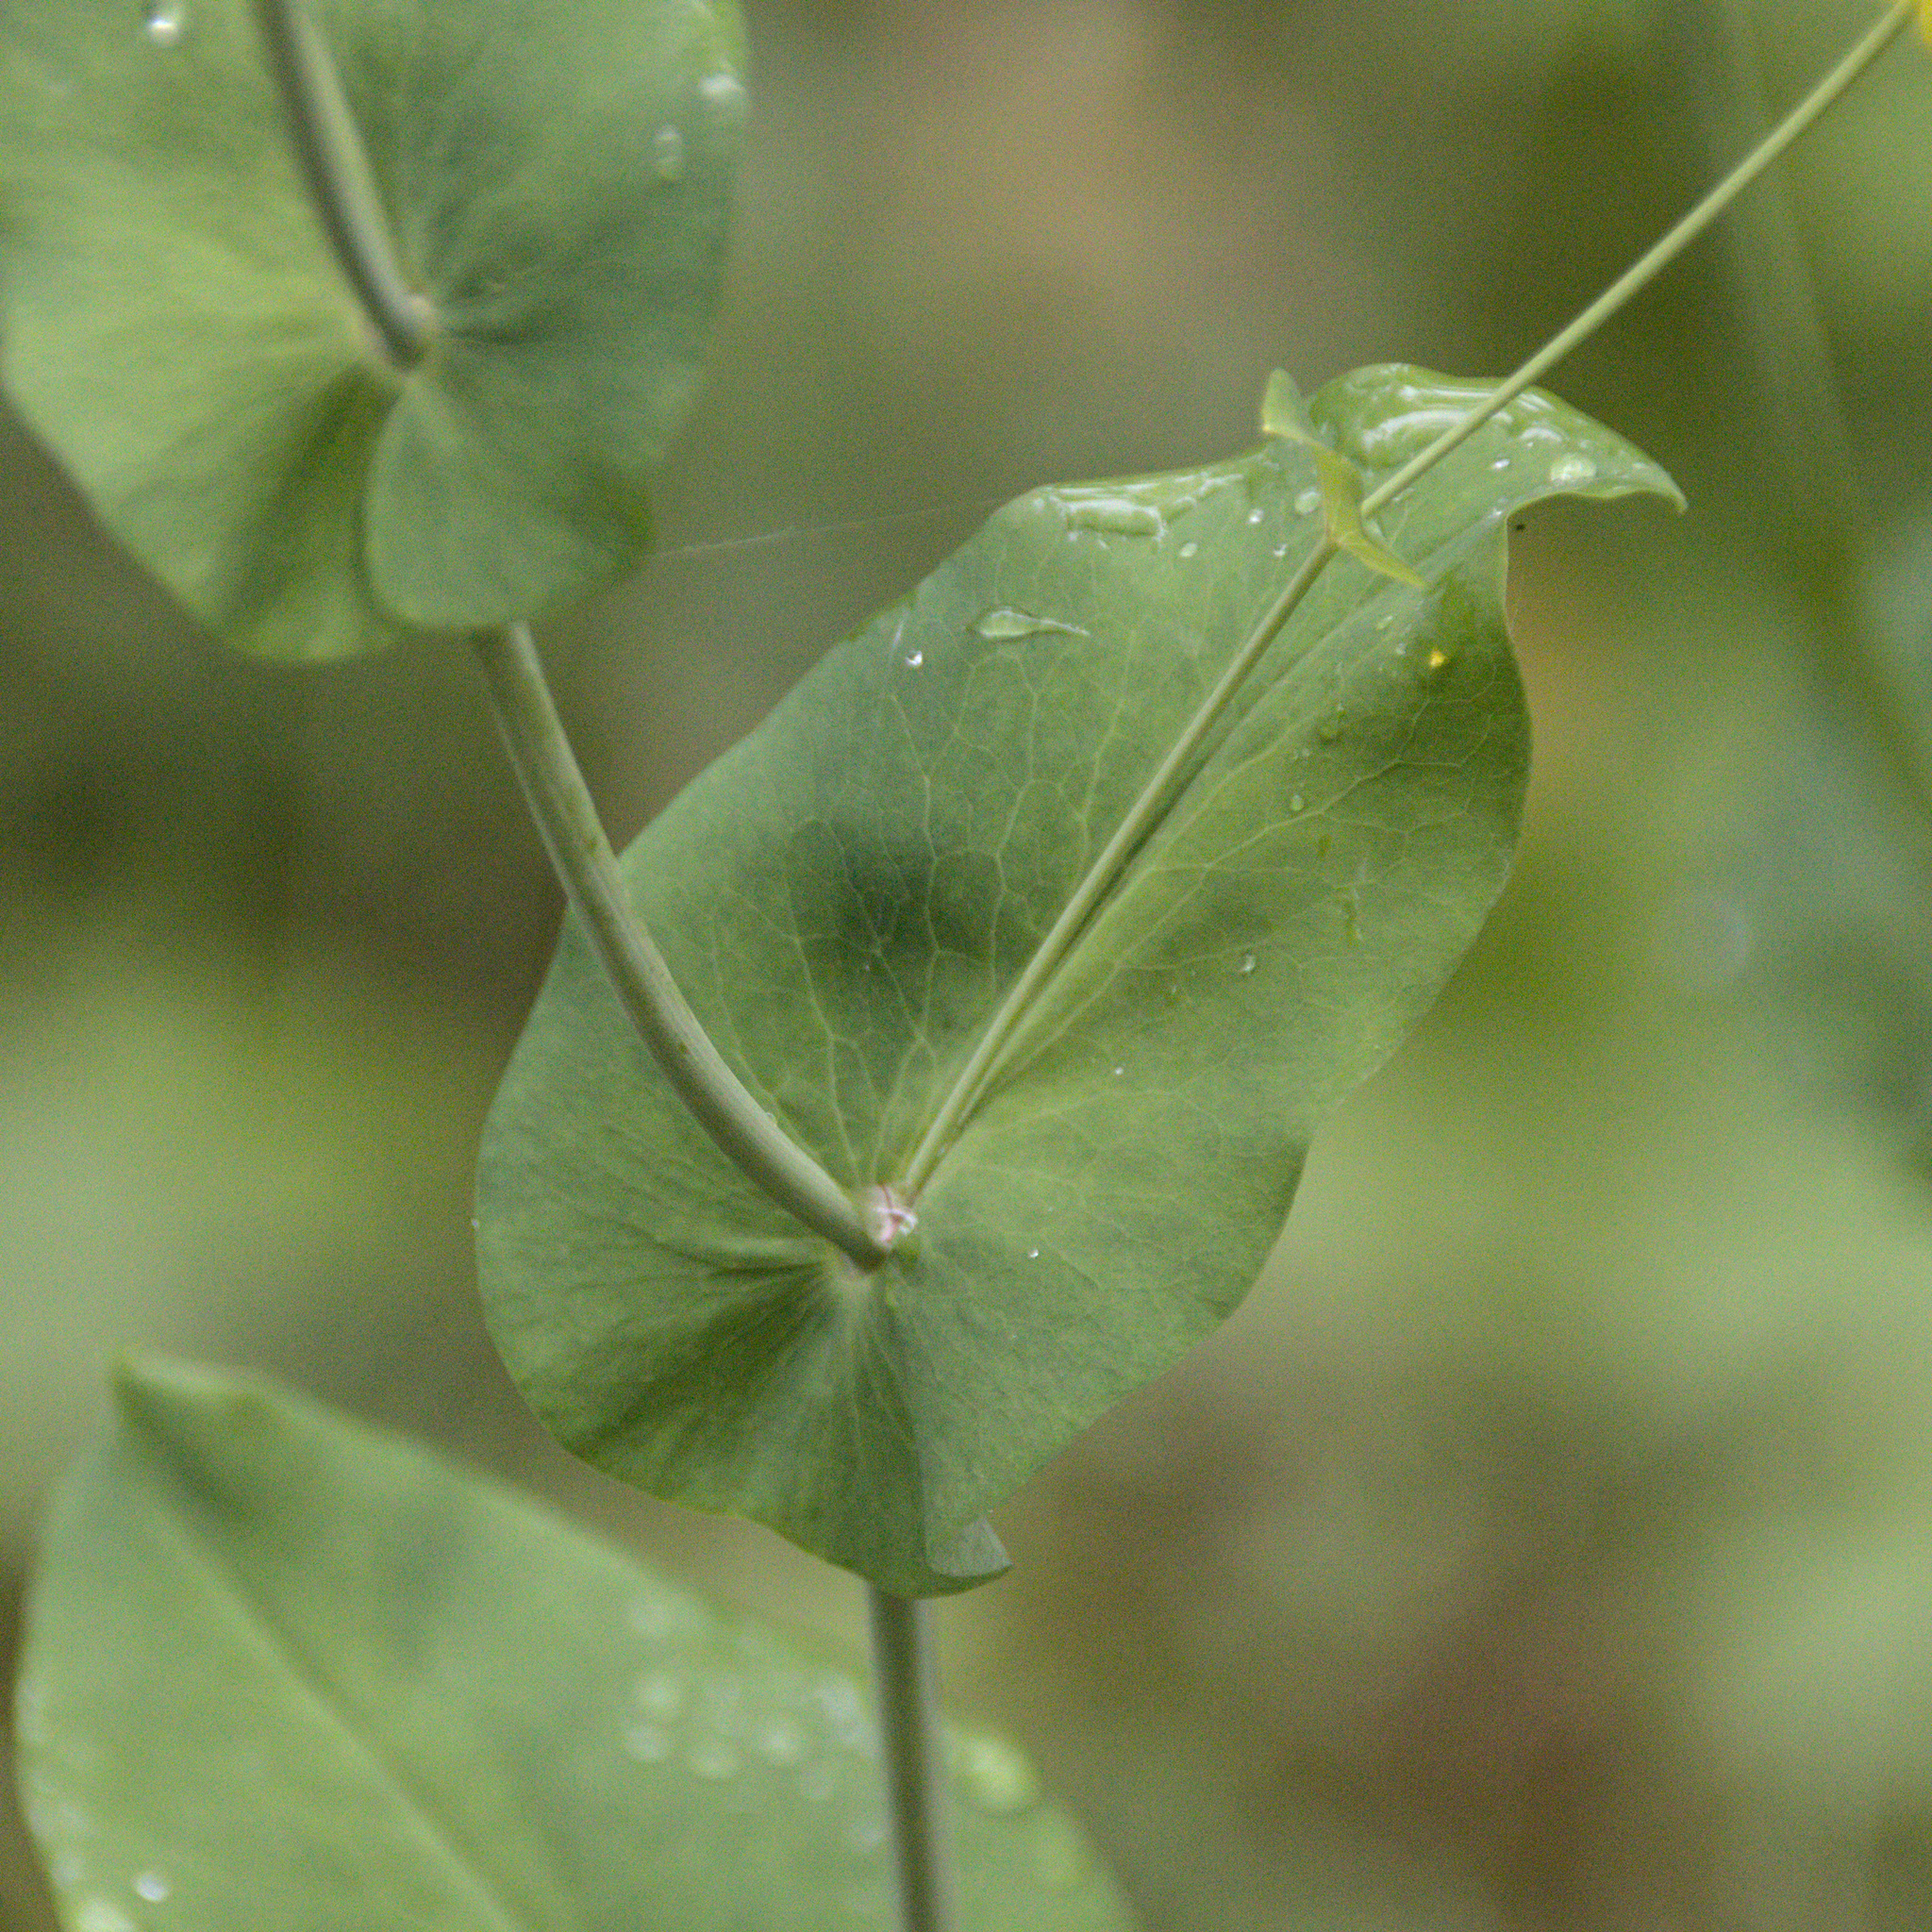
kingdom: Plantae
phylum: Tracheophyta
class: Magnoliopsida
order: Apiales
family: Apiaceae
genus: Bupleurum
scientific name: Bupleurum aureum
